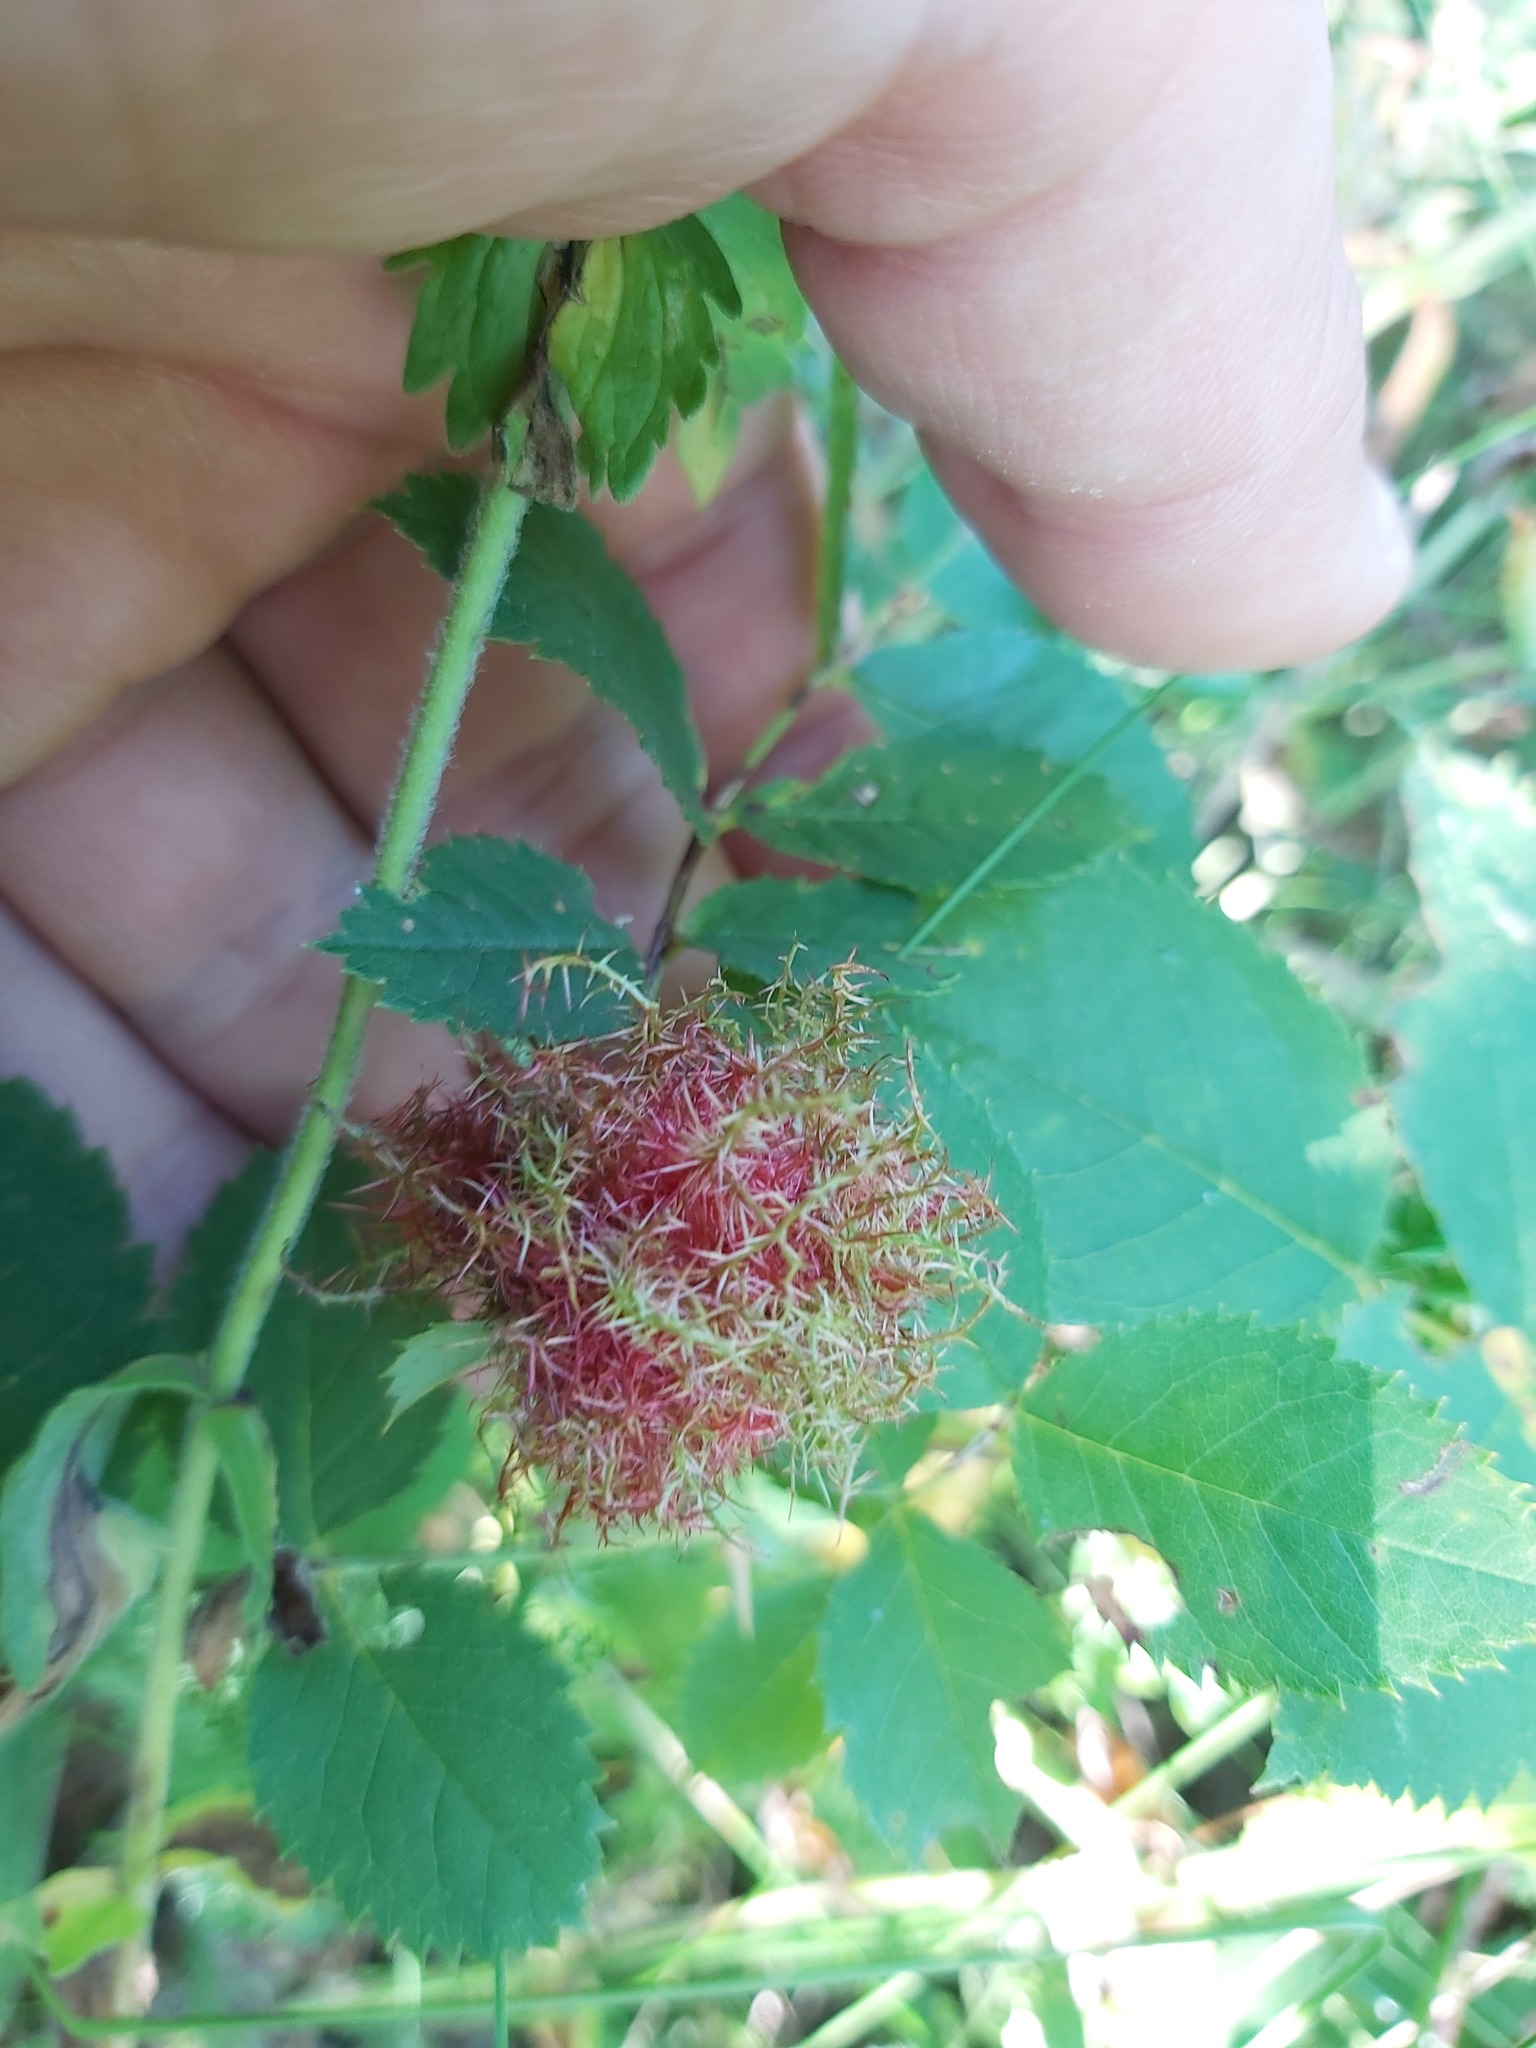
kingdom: Animalia
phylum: Arthropoda
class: Insecta
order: Hymenoptera
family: Cynipidae
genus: Diplolepis
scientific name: Diplolepis rosae
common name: Bedeguar gall
